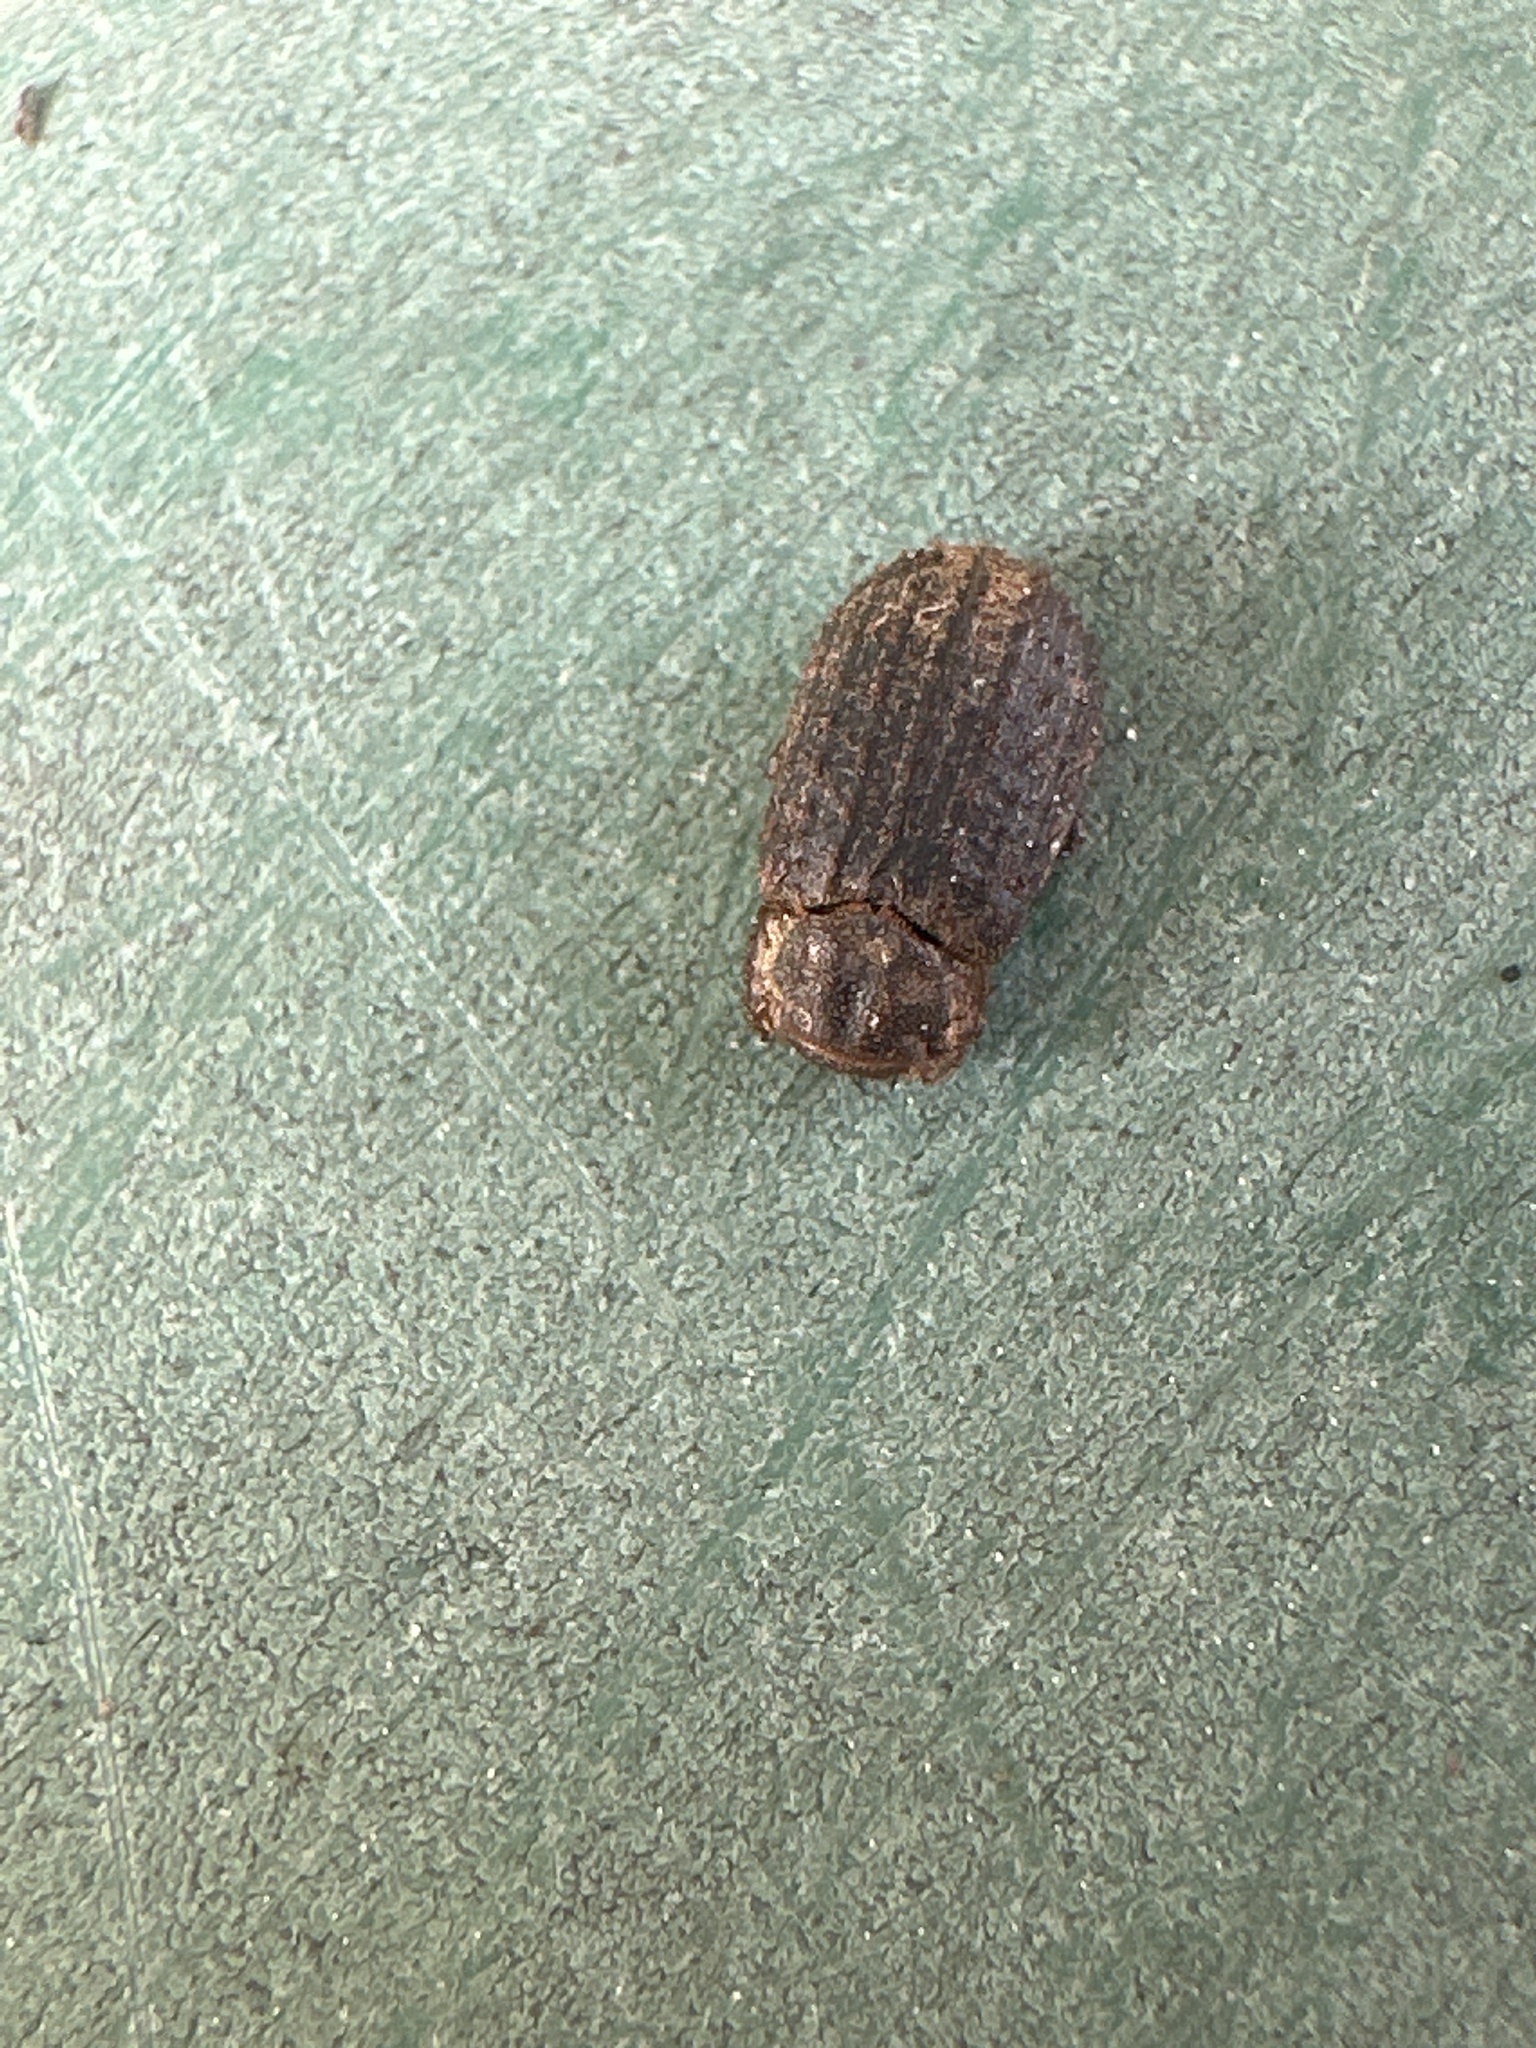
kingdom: Animalia
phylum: Arthropoda
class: Insecta
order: Coleoptera
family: Trogidae
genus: Trox
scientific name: Trox scaber
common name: Hide beetle
